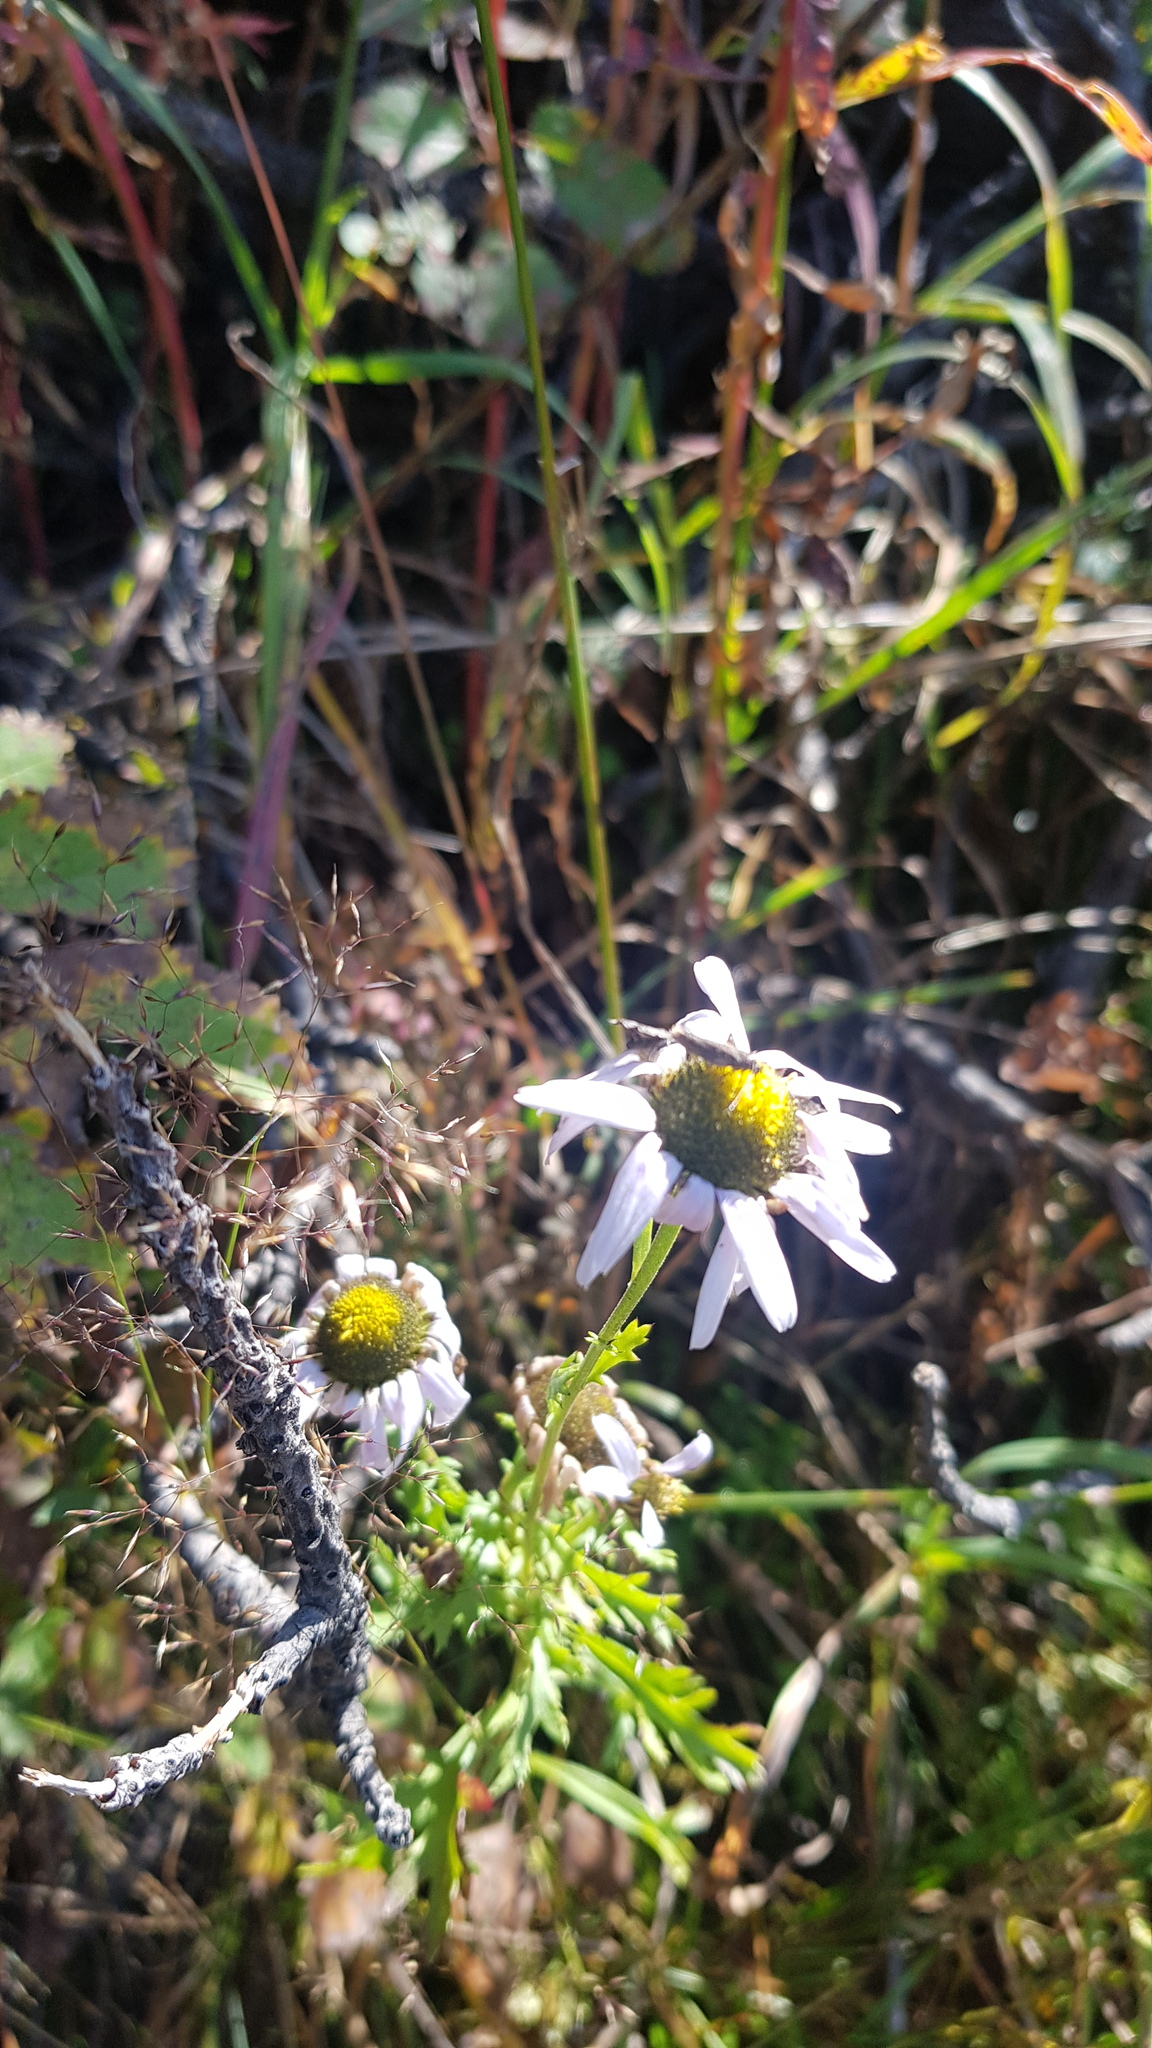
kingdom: Plantae
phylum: Tracheophyta
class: Magnoliopsida
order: Asterales
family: Asteraceae
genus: Chrysanthemum
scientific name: Chrysanthemum zawadzkii
